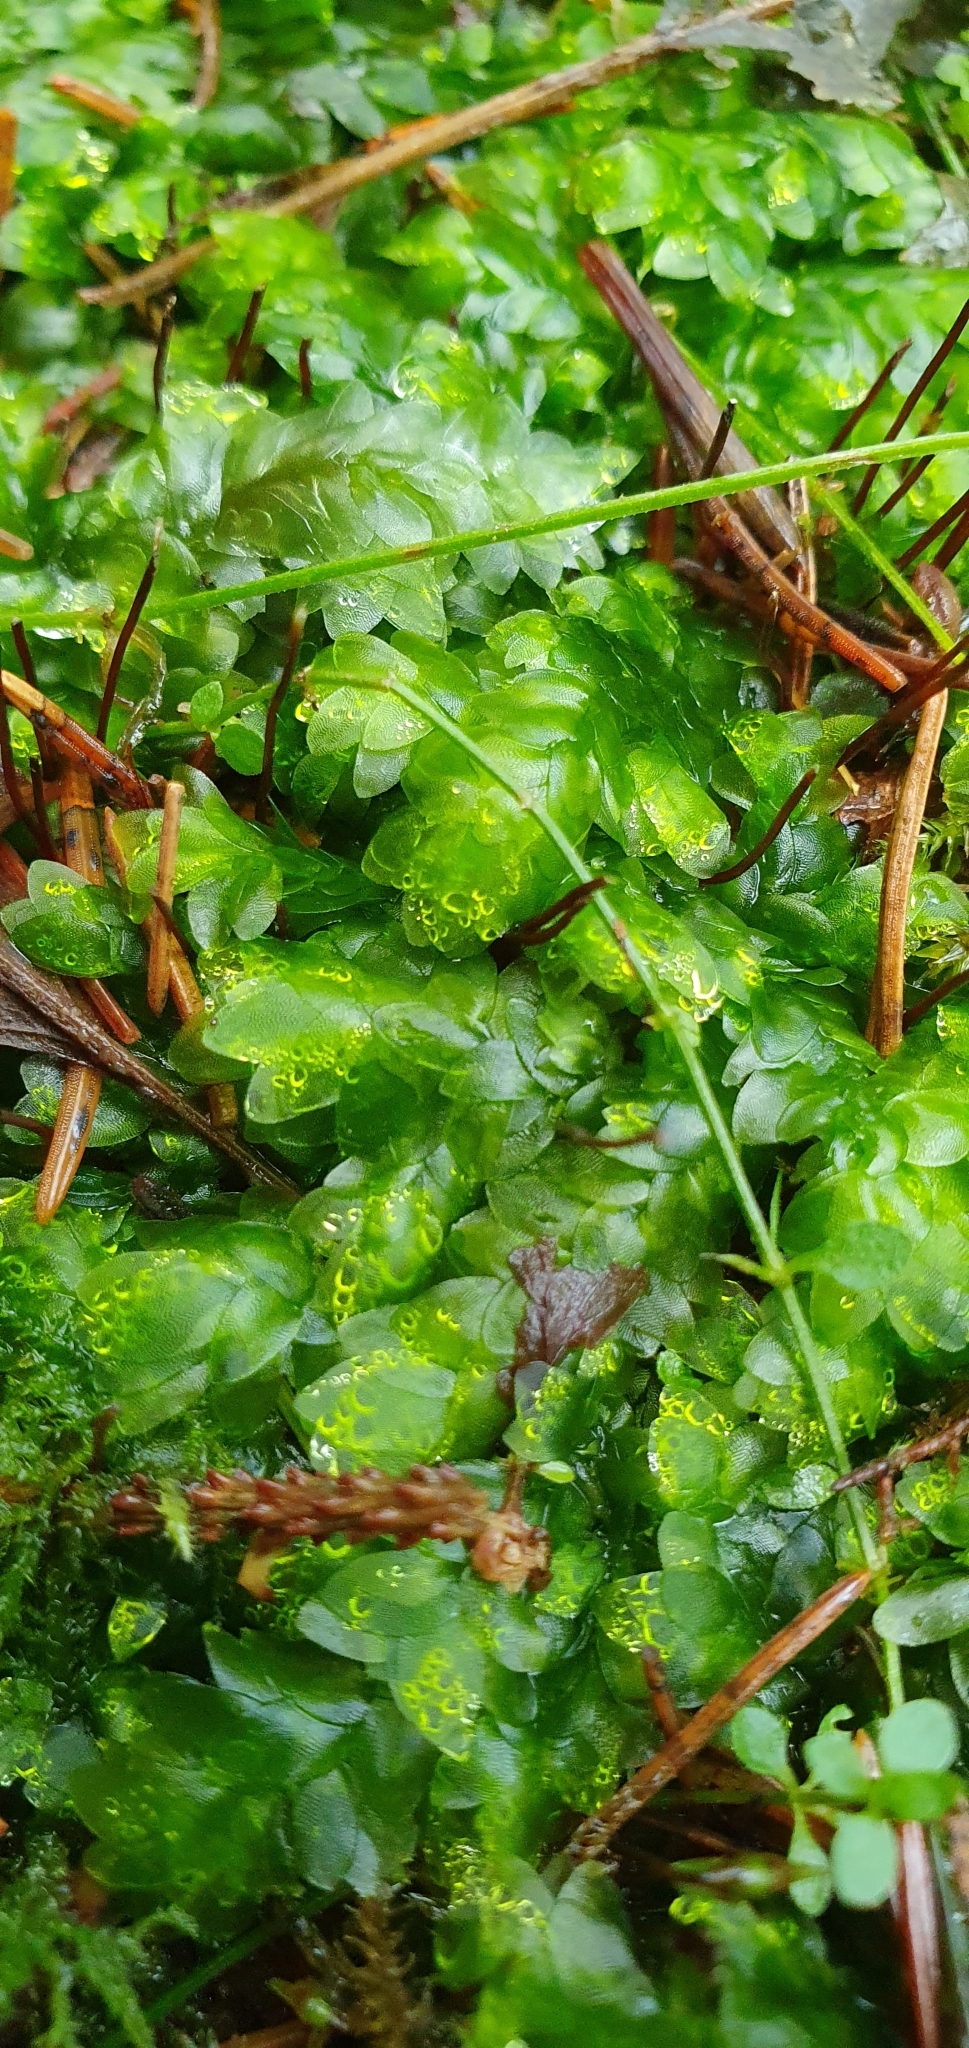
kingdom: Plantae
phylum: Bryophyta
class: Bryopsida
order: Hookeriales
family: Hookeriaceae
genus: Hookeria
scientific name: Hookeria lucens
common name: Shining hookeria
